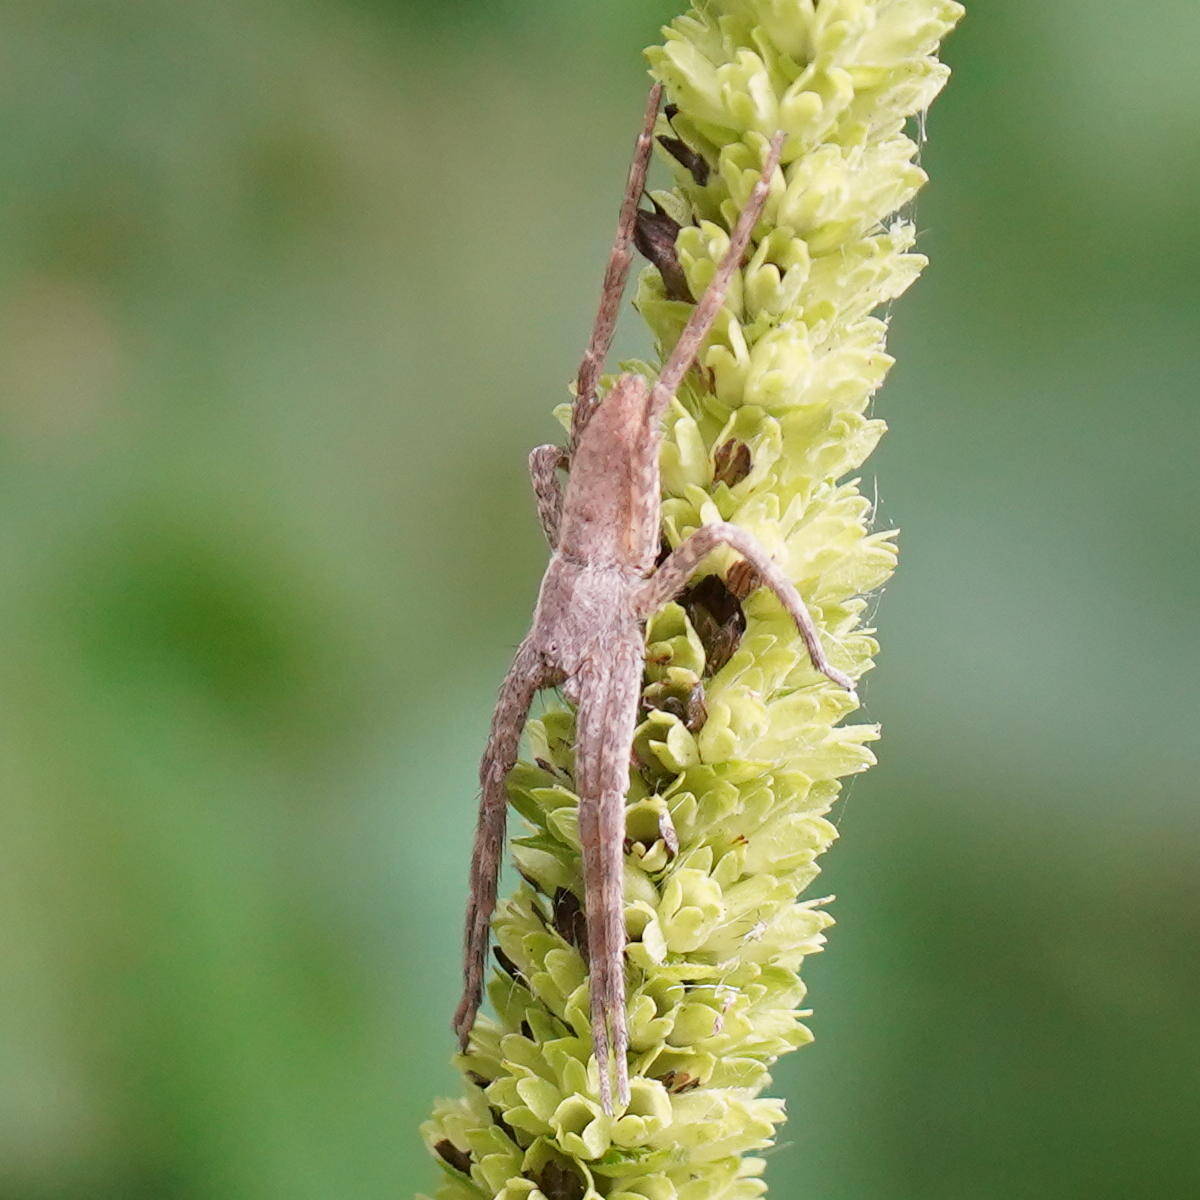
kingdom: Animalia
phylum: Arthropoda
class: Arachnida
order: Araneae
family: Pisauridae
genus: Pisaurina
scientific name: Pisaurina mira
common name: American nursery web spider
